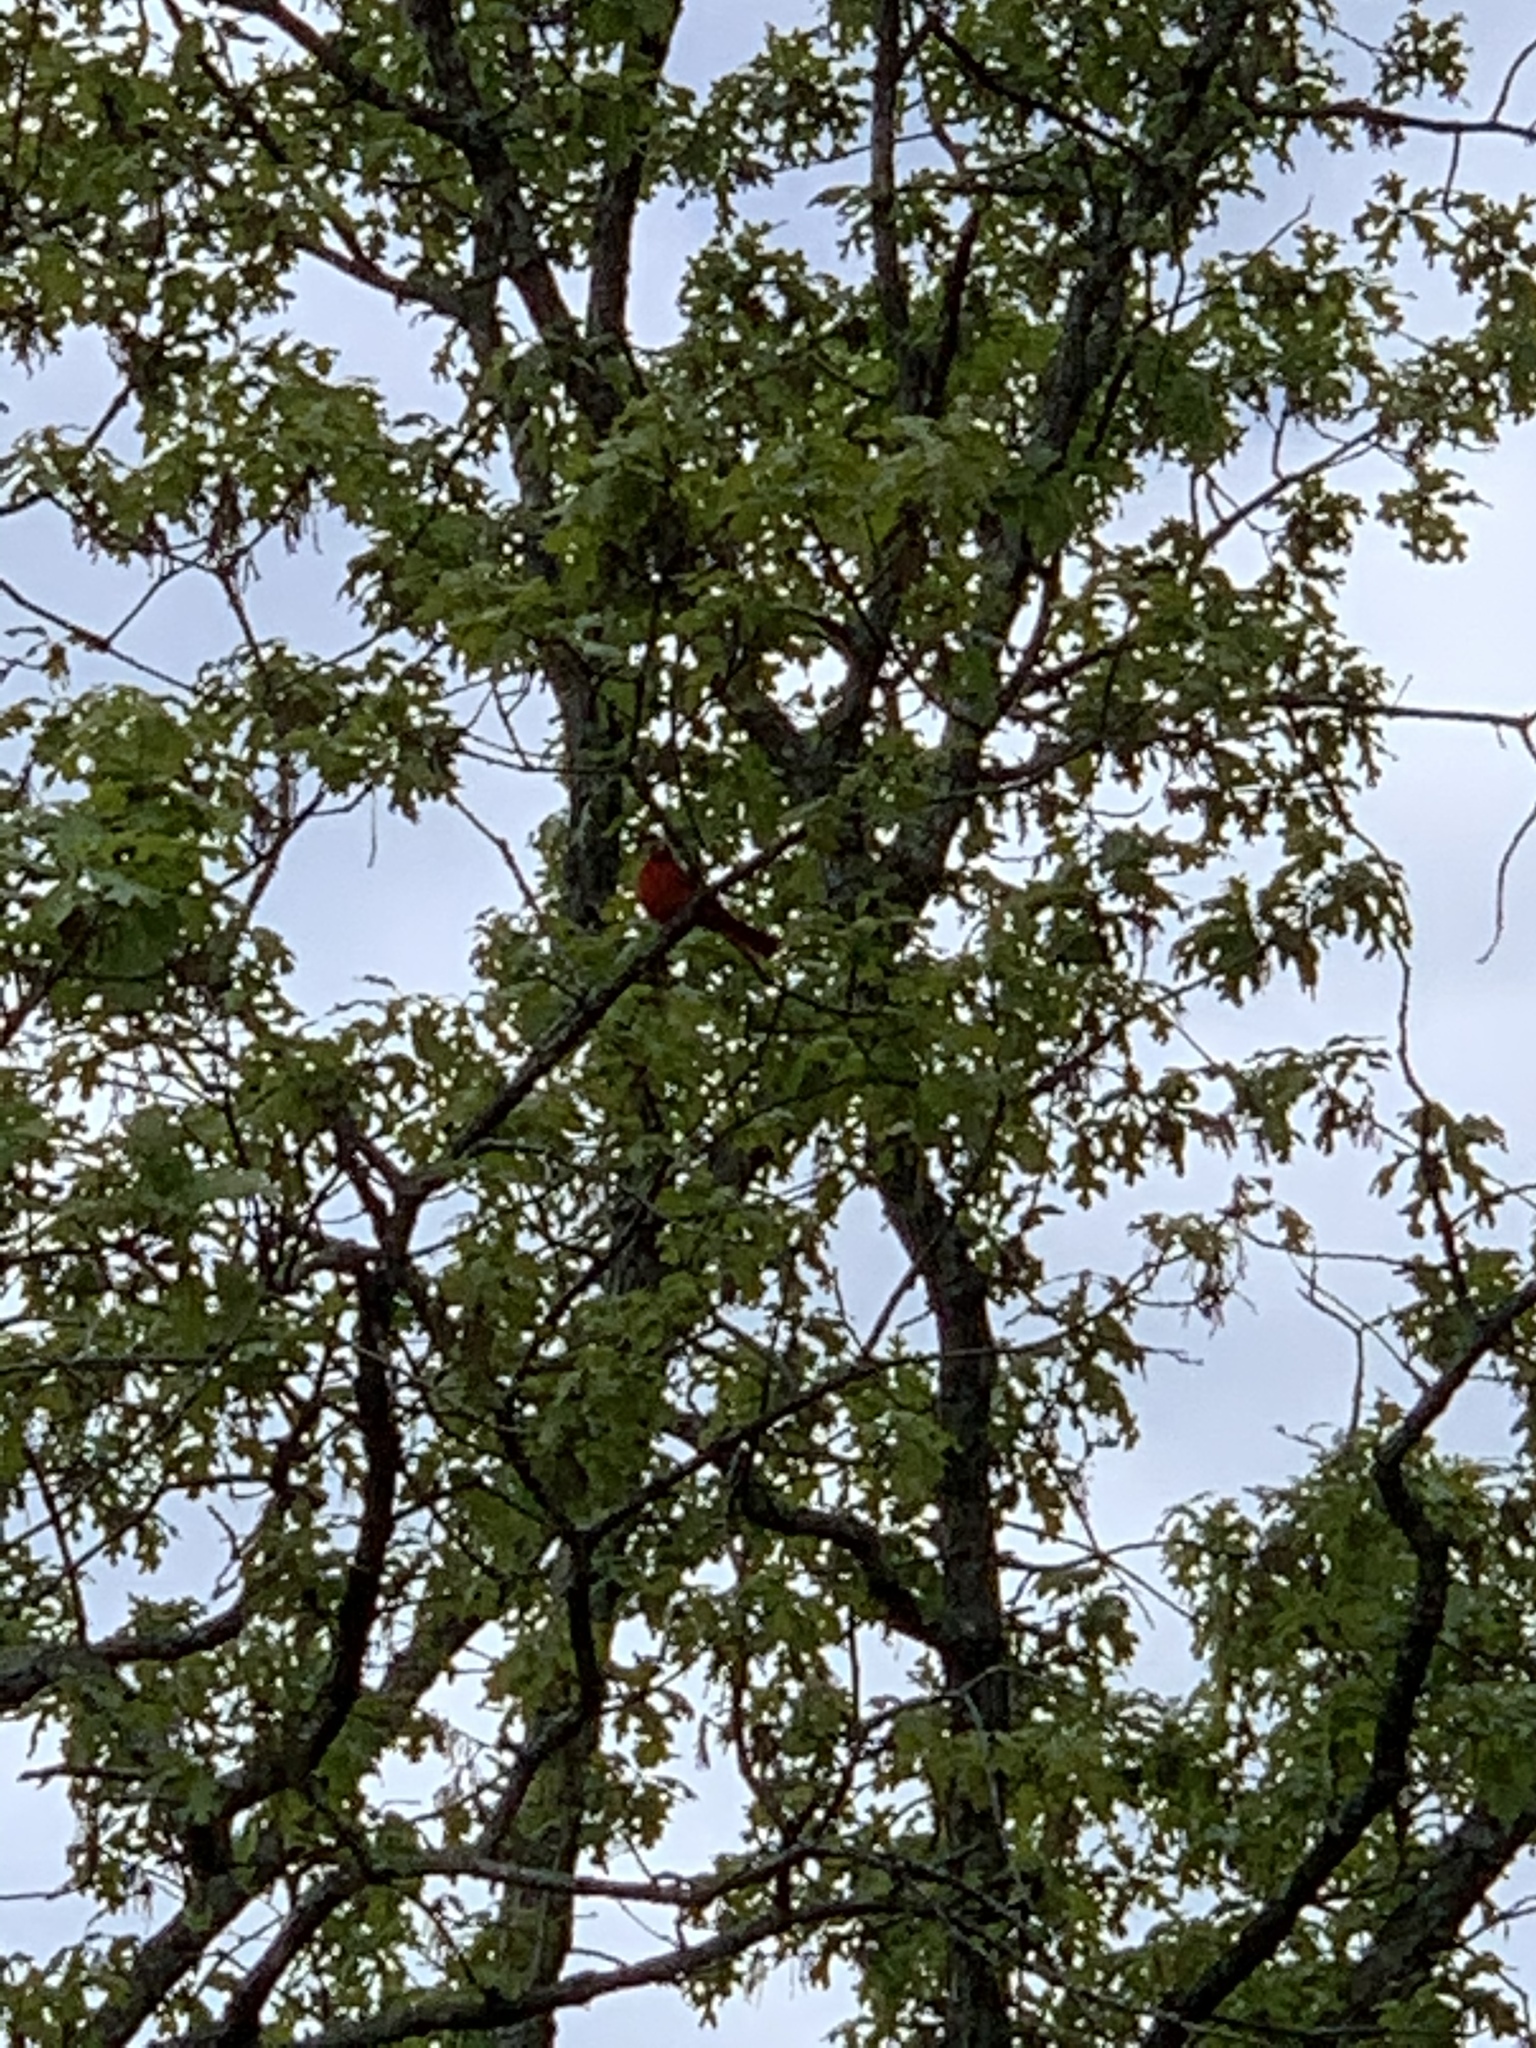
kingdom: Animalia
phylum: Chordata
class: Aves
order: Passeriformes
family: Cardinalidae
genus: Cardinalis
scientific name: Cardinalis cardinalis
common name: Northern cardinal
